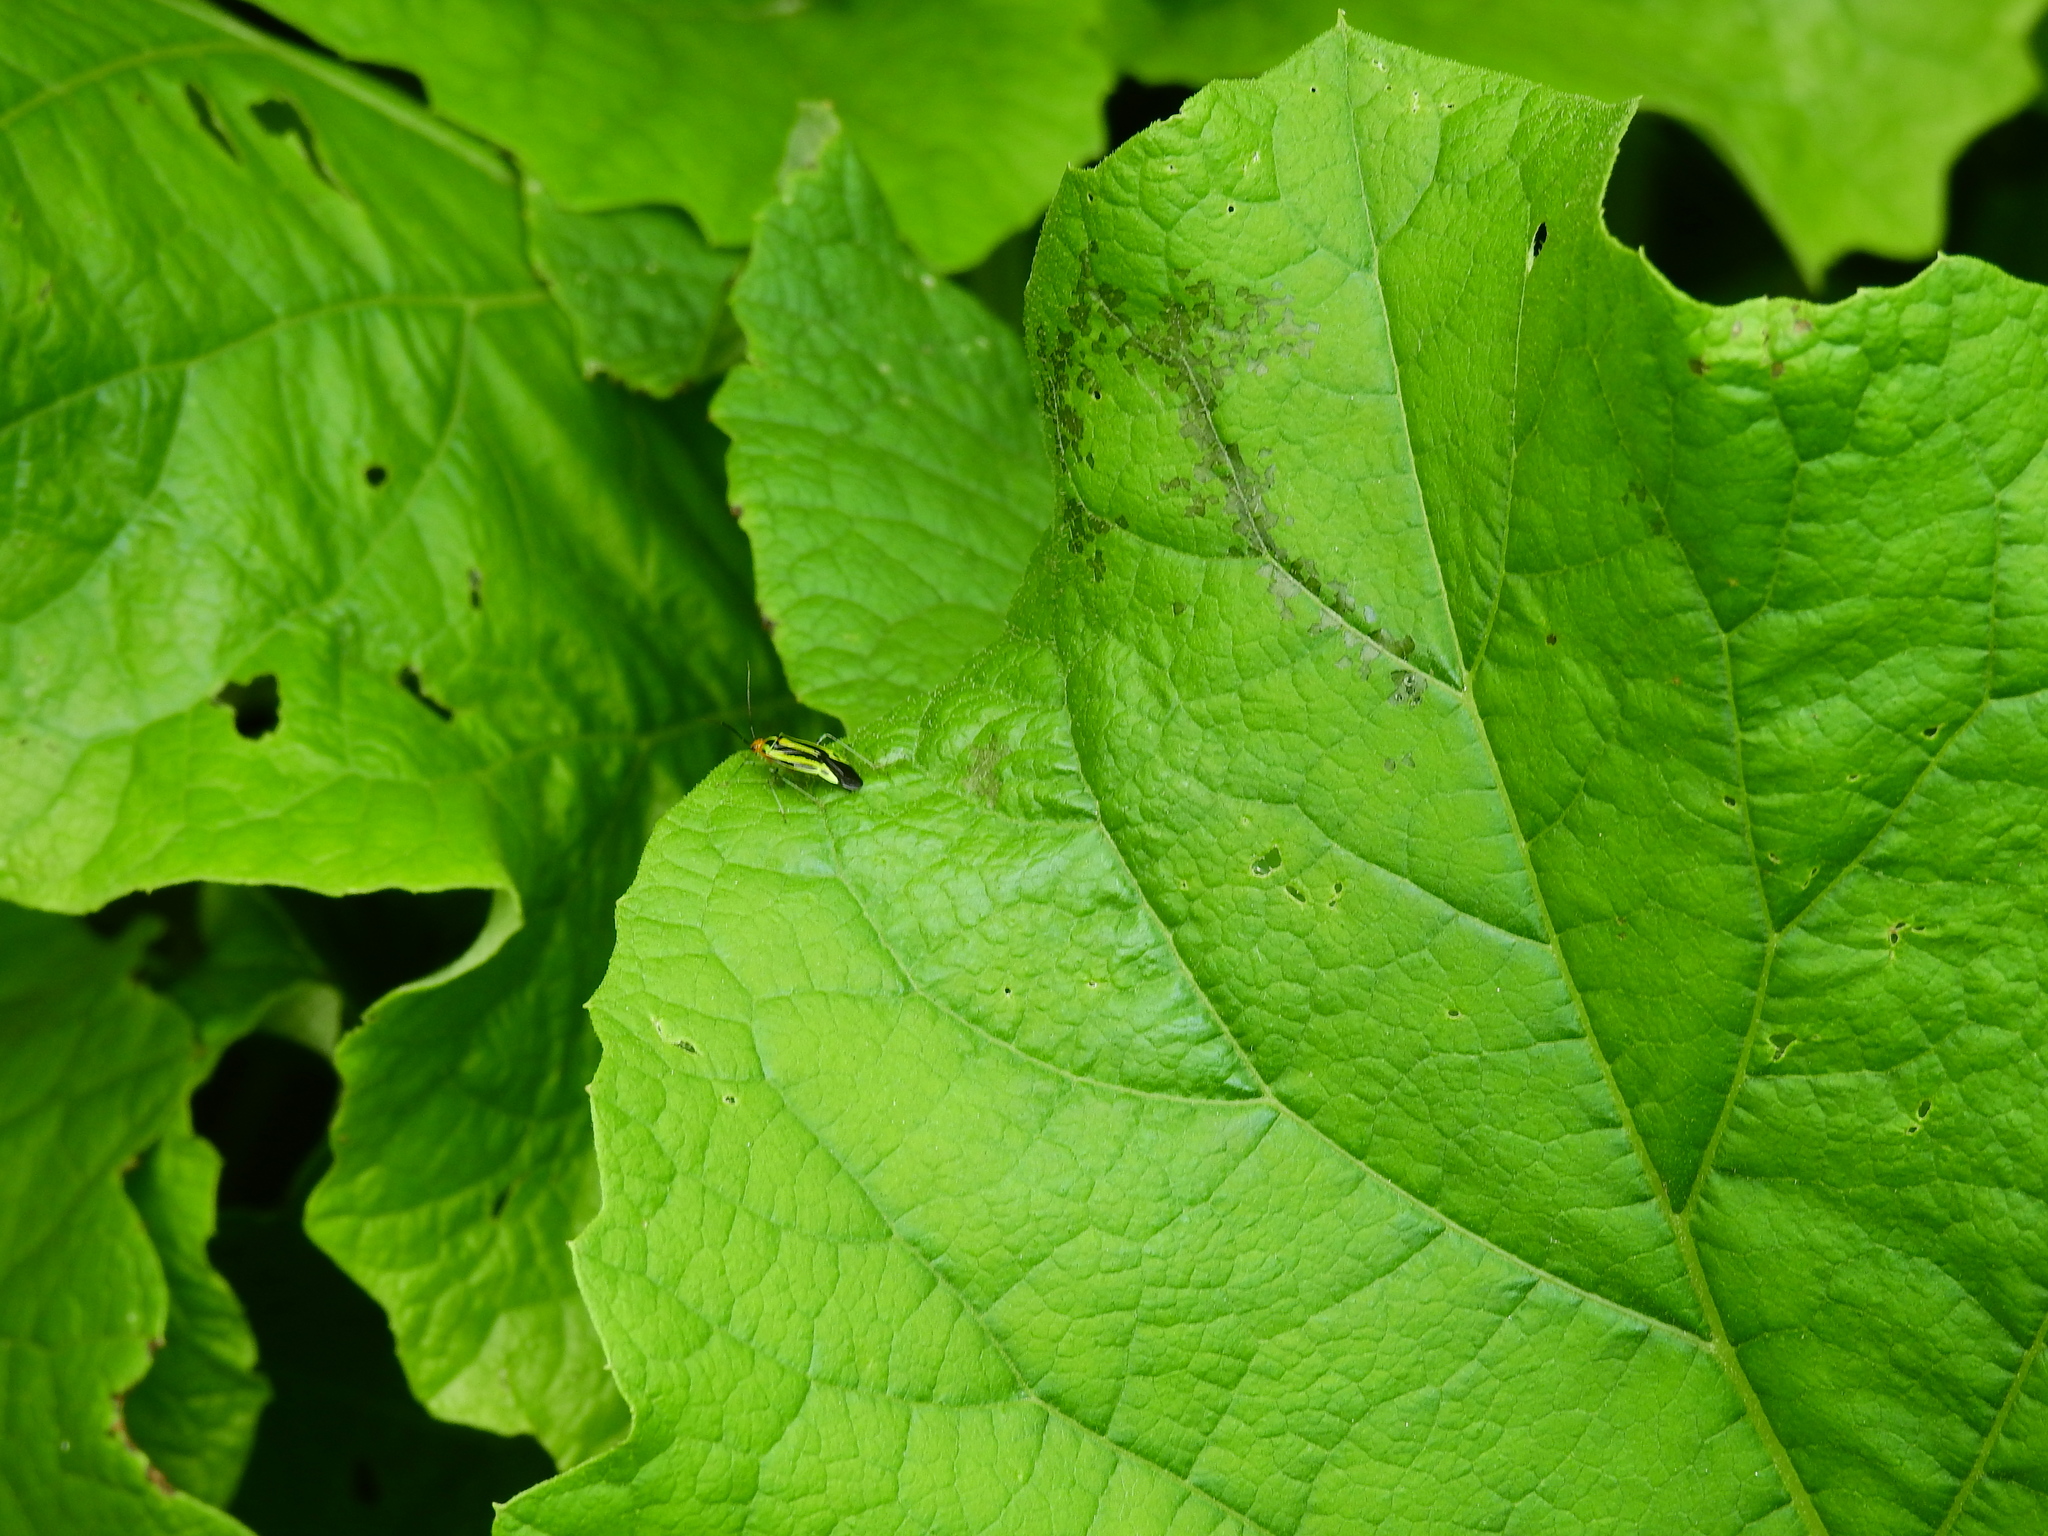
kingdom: Animalia
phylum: Arthropoda
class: Insecta
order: Hemiptera
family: Miridae
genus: Poecilocapsus
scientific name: Poecilocapsus lineatus
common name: Four-lined plant bug
